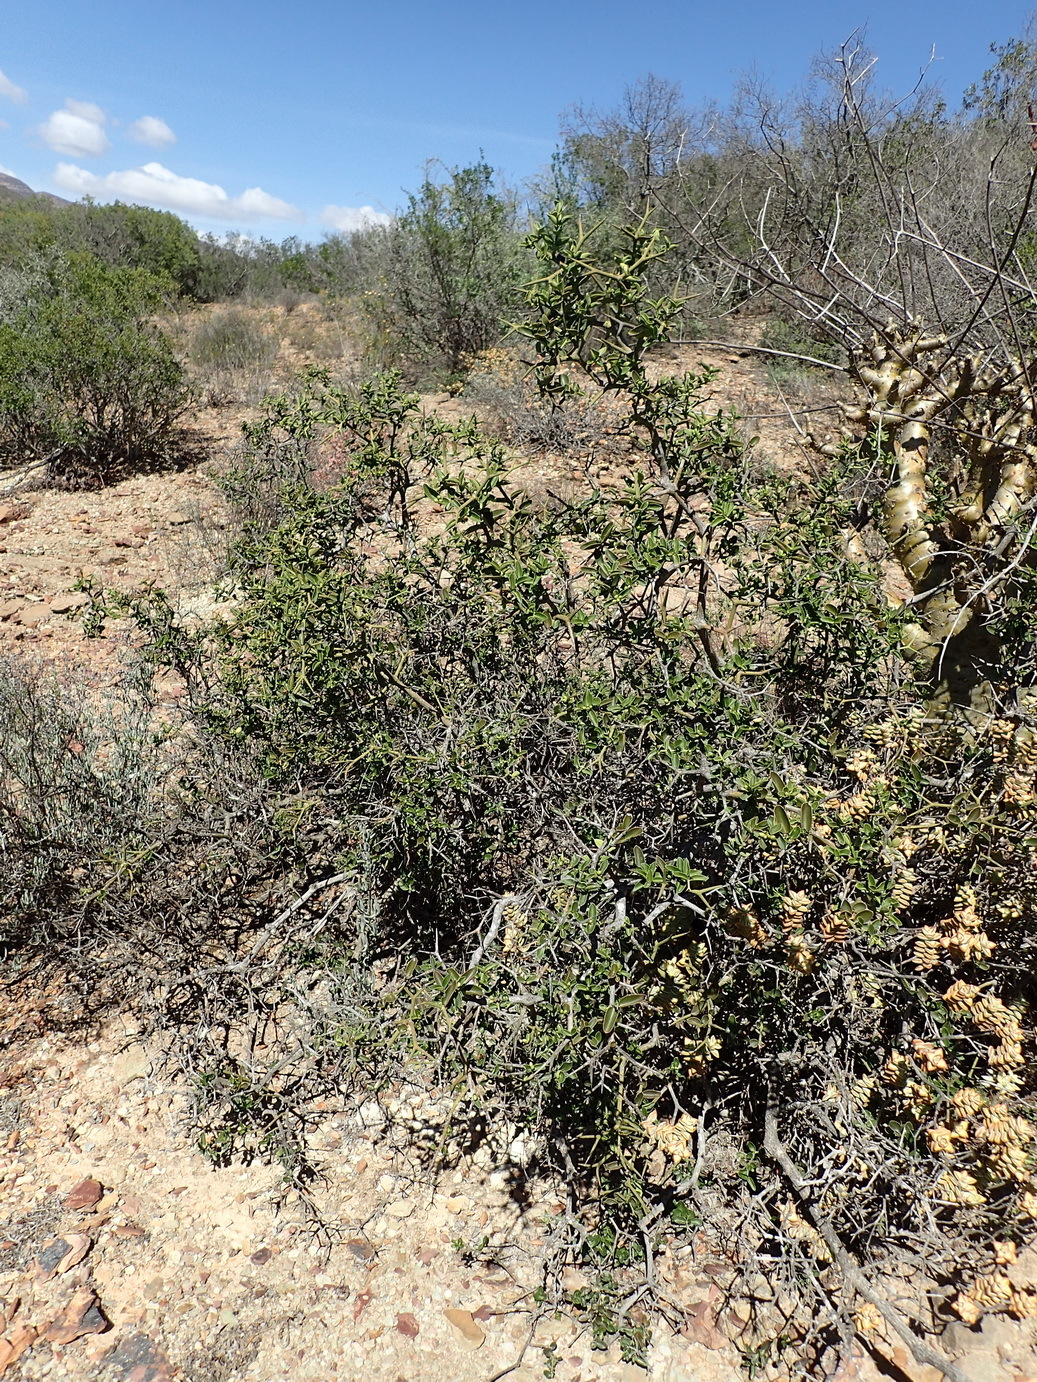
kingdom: Plantae
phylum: Tracheophyta
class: Magnoliopsida
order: Gentianales
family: Apocynaceae
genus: Carissa
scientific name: Carissa haematocarpa
